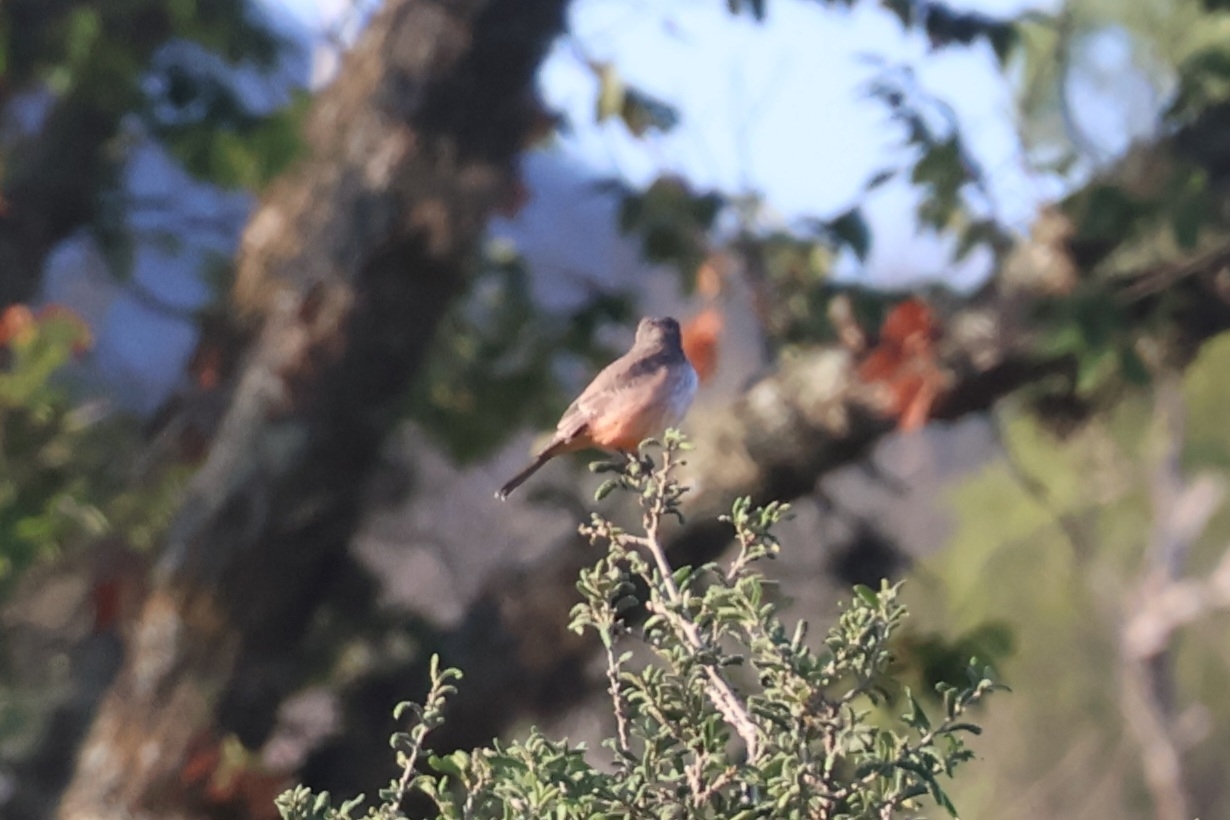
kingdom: Animalia
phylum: Chordata
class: Aves
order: Passeriformes
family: Tyrannidae
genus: Pyrocephalus
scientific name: Pyrocephalus rubinus
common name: Vermilion flycatcher
